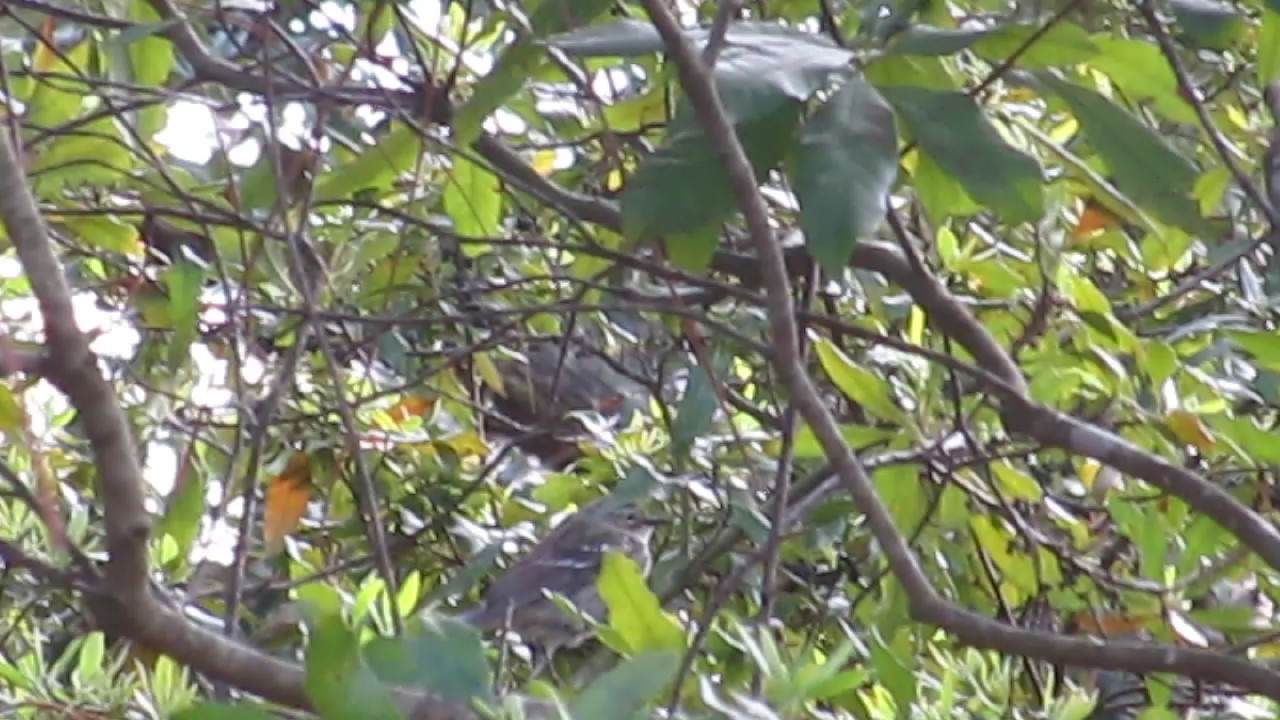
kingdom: Animalia
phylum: Chordata
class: Aves
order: Passeriformes
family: Parulidae
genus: Setophaga
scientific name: Setophaga coronata
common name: Myrtle warbler
